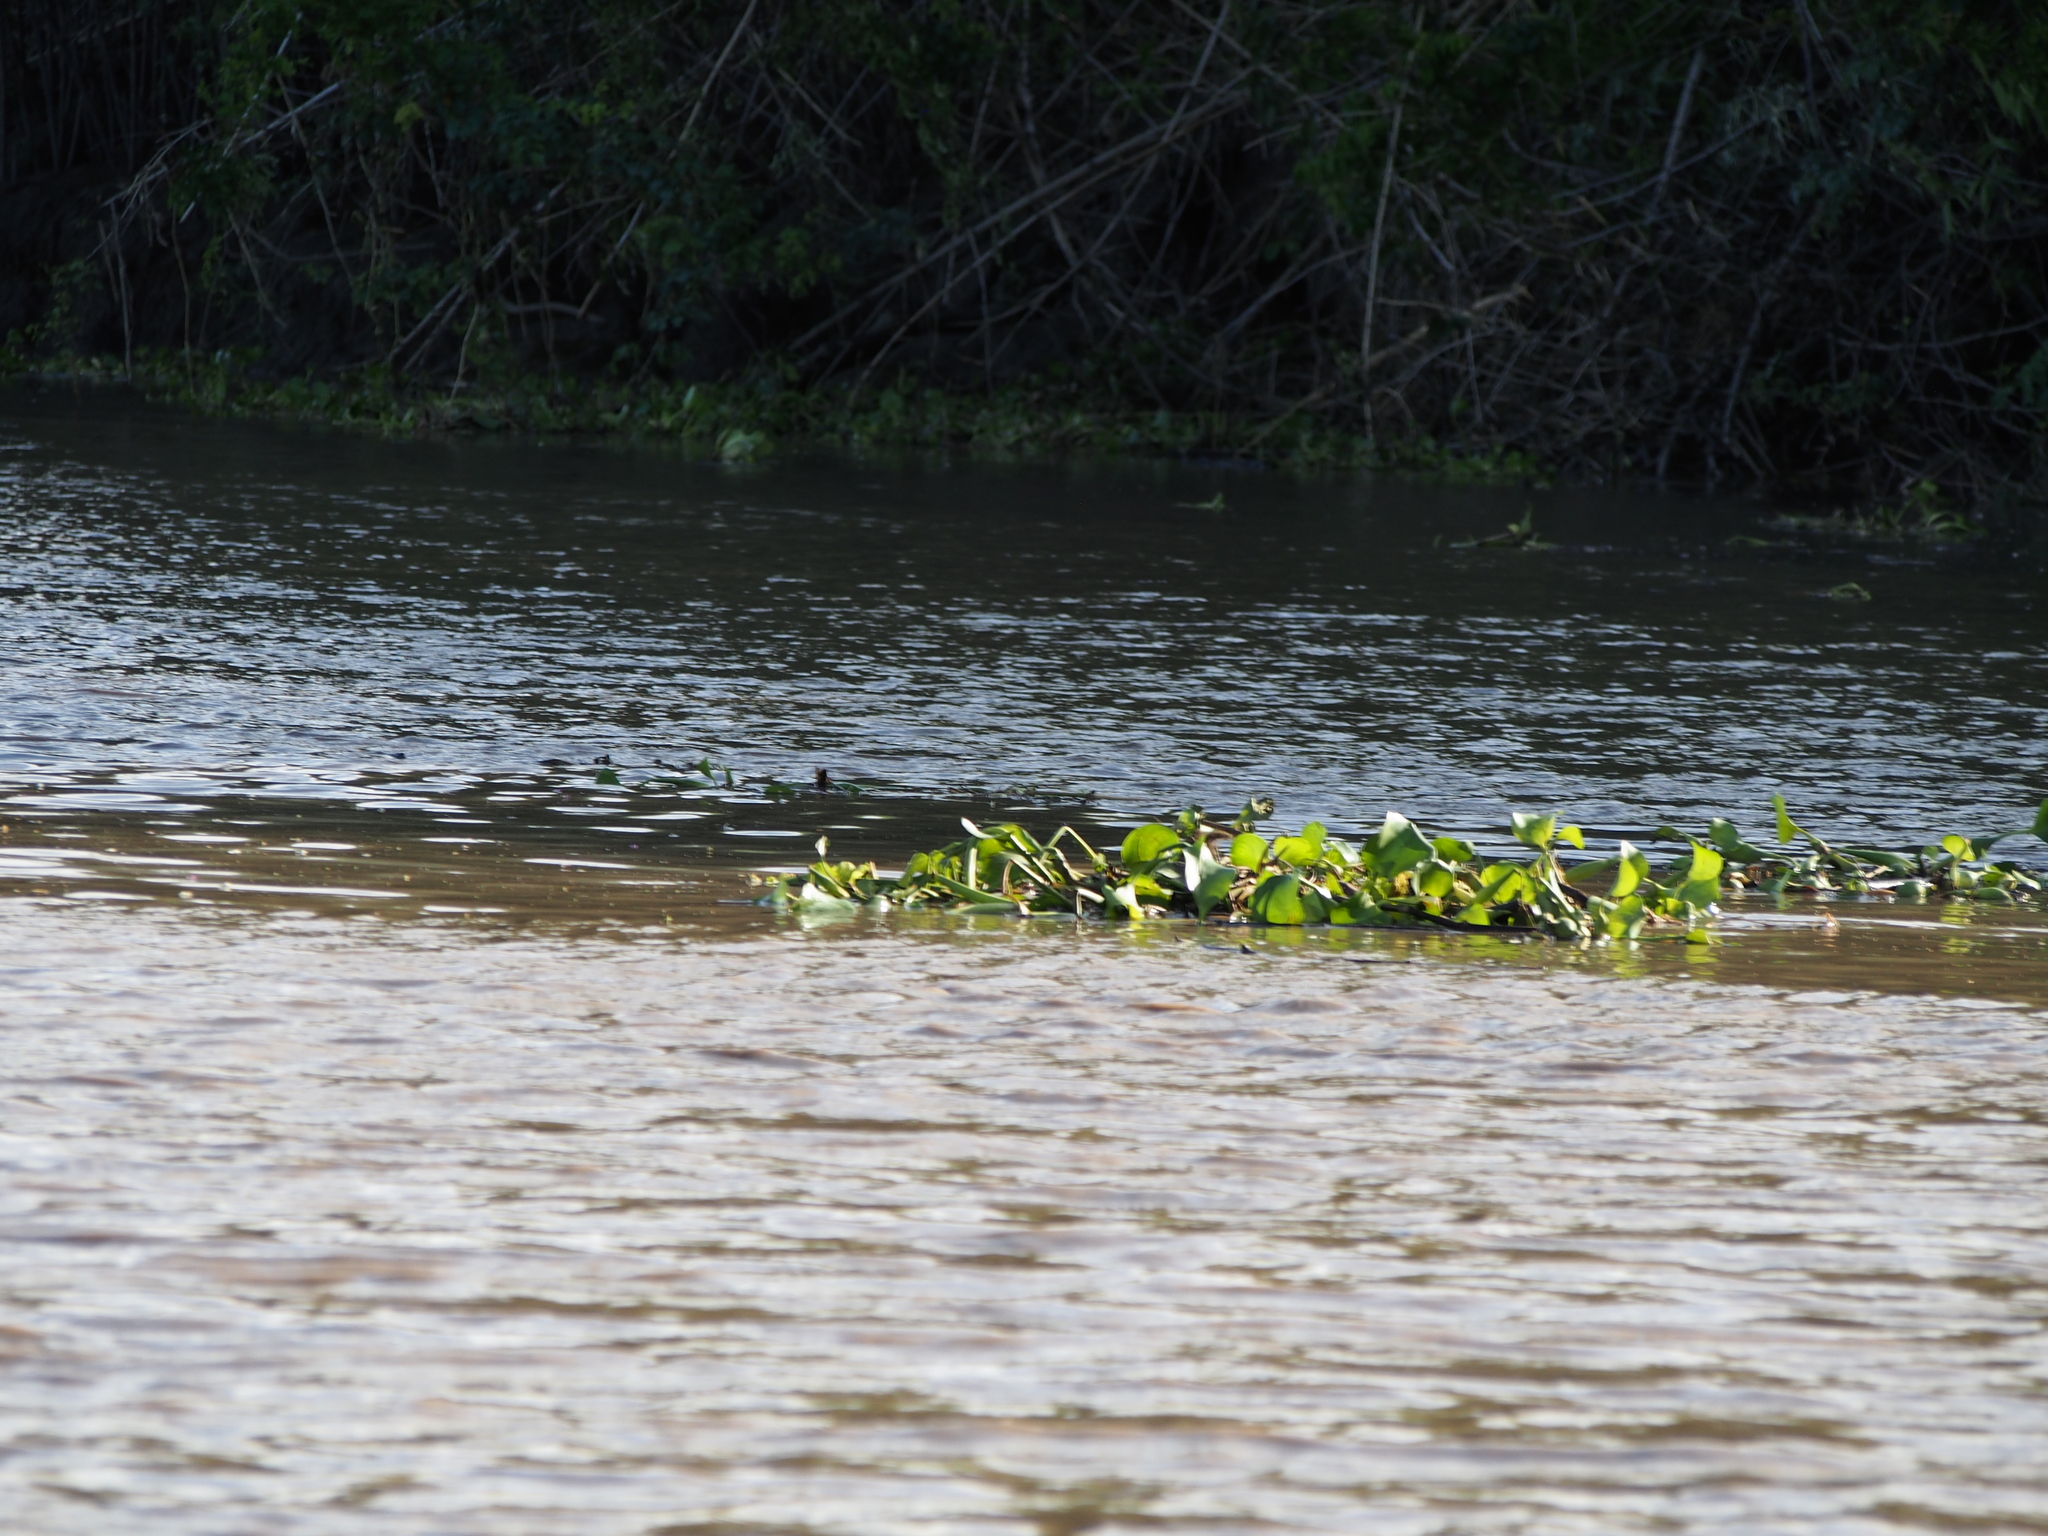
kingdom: Plantae
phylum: Tracheophyta
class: Liliopsida
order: Commelinales
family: Pontederiaceae
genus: Pontederia
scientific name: Pontederia crassipes
